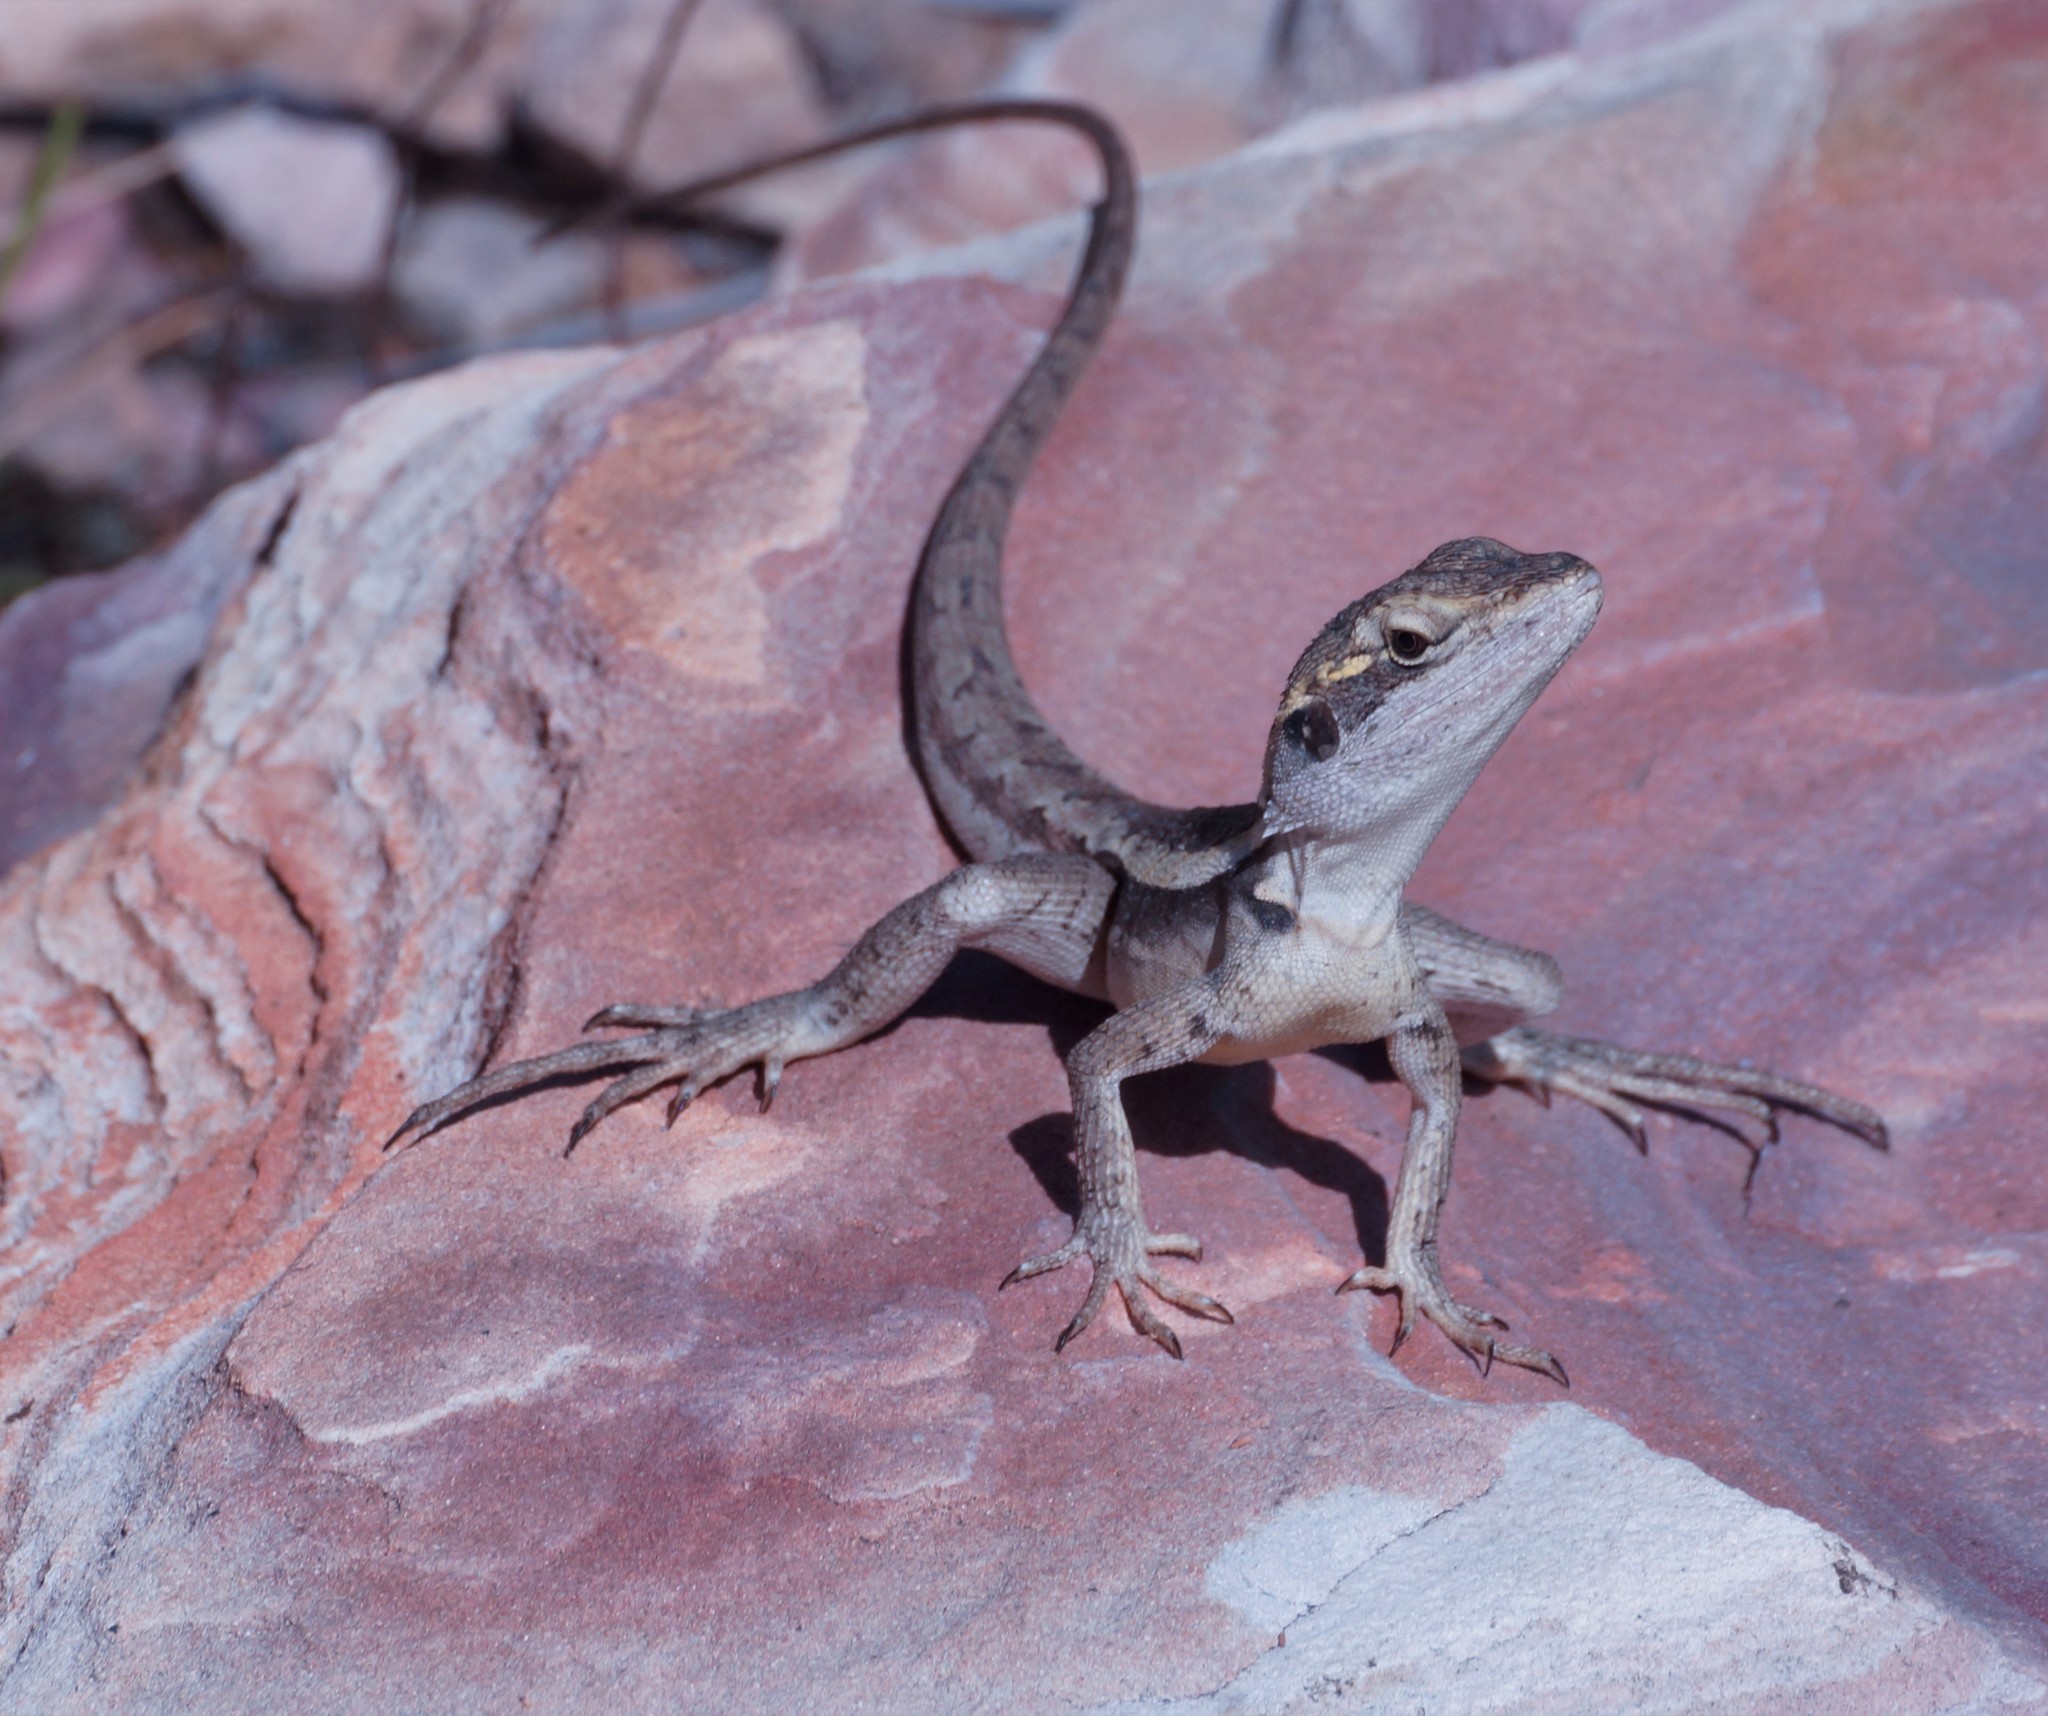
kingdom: Animalia
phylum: Chordata
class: Squamata
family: Agamidae
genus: Lophognathus
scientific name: Lophognathus horneri
